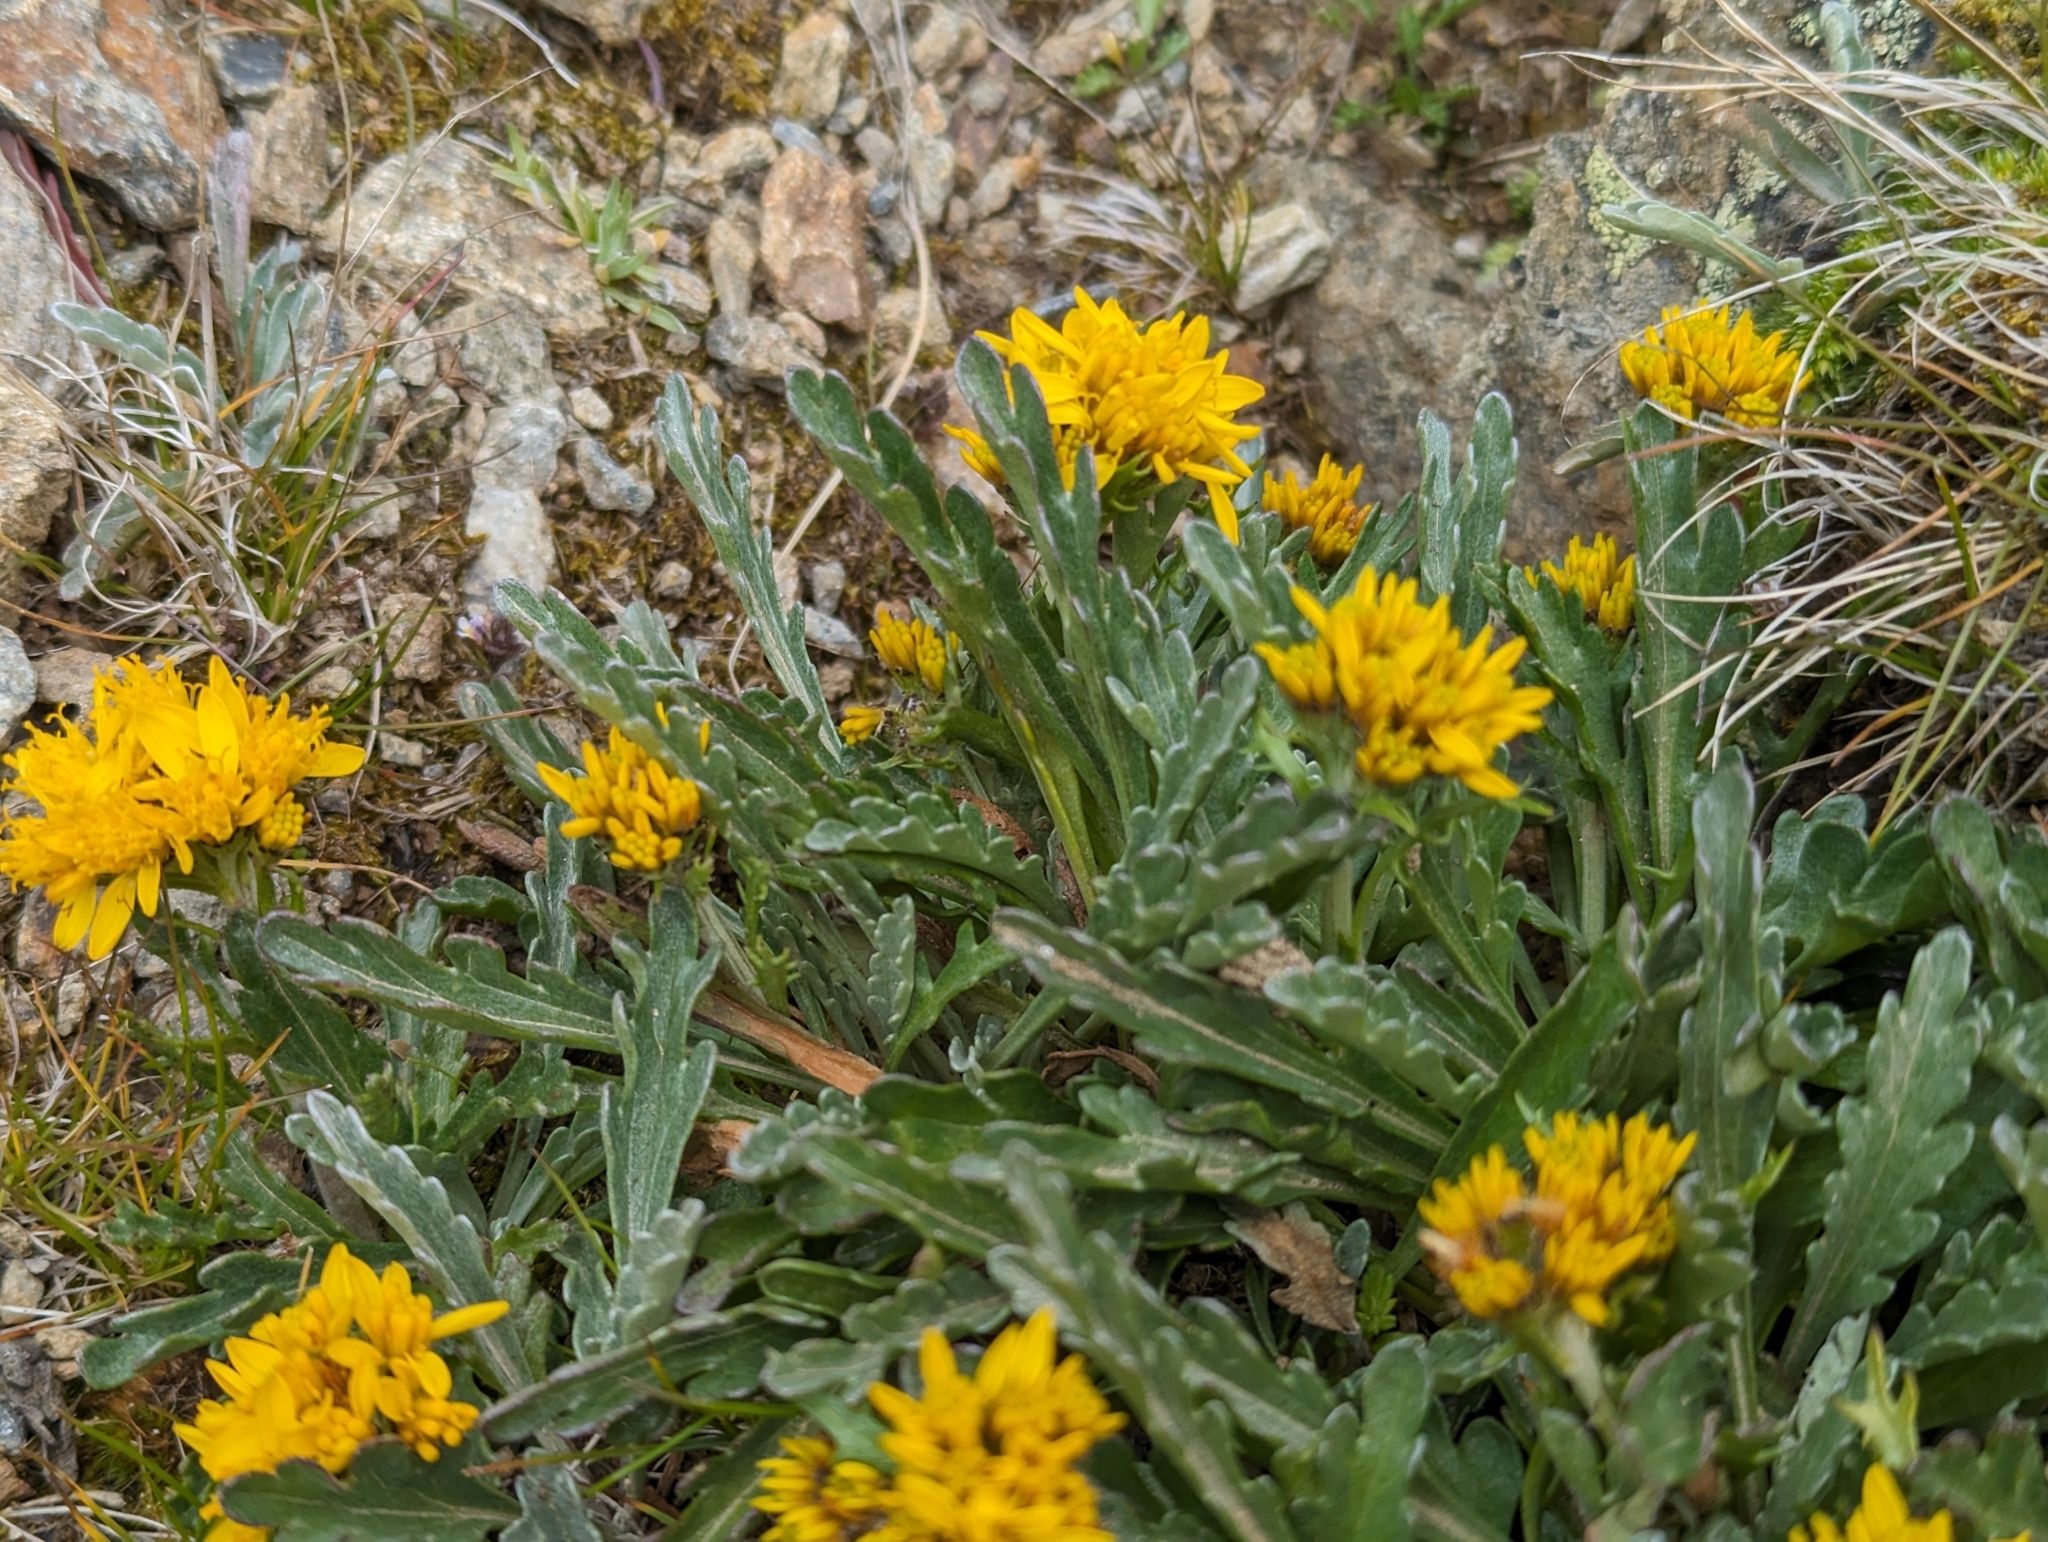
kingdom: Plantae
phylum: Tracheophyta
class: Magnoliopsida
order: Asterales
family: Asteraceae
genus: Jacobaea
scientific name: Jacobaea carniolica
